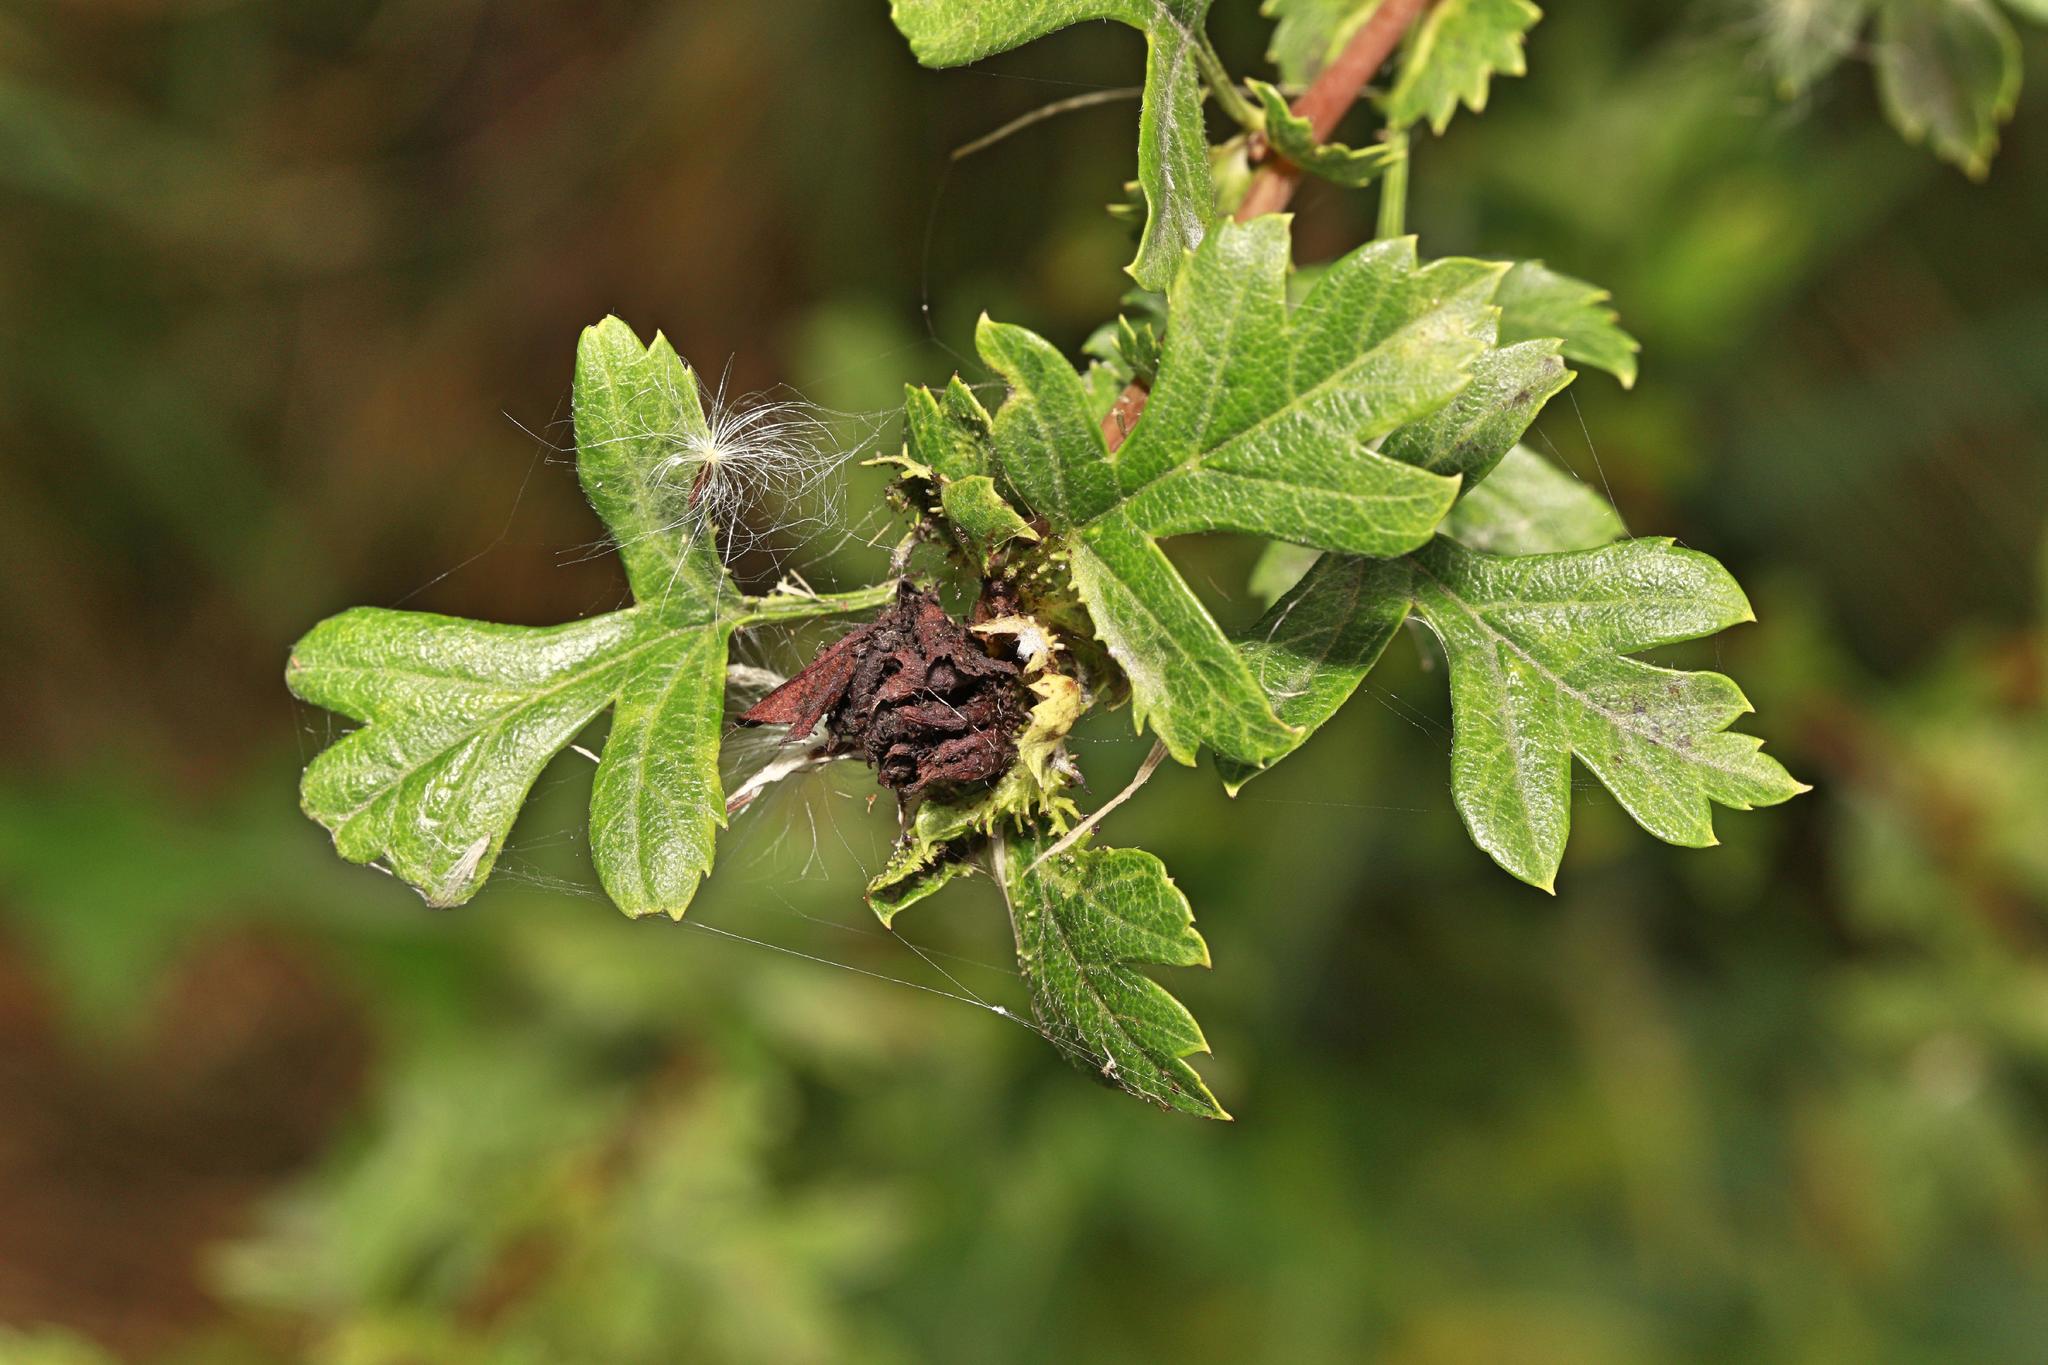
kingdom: Animalia
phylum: Arthropoda
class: Insecta
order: Diptera
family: Cecidomyiidae
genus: Dasineura
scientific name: Dasineura crataegi
